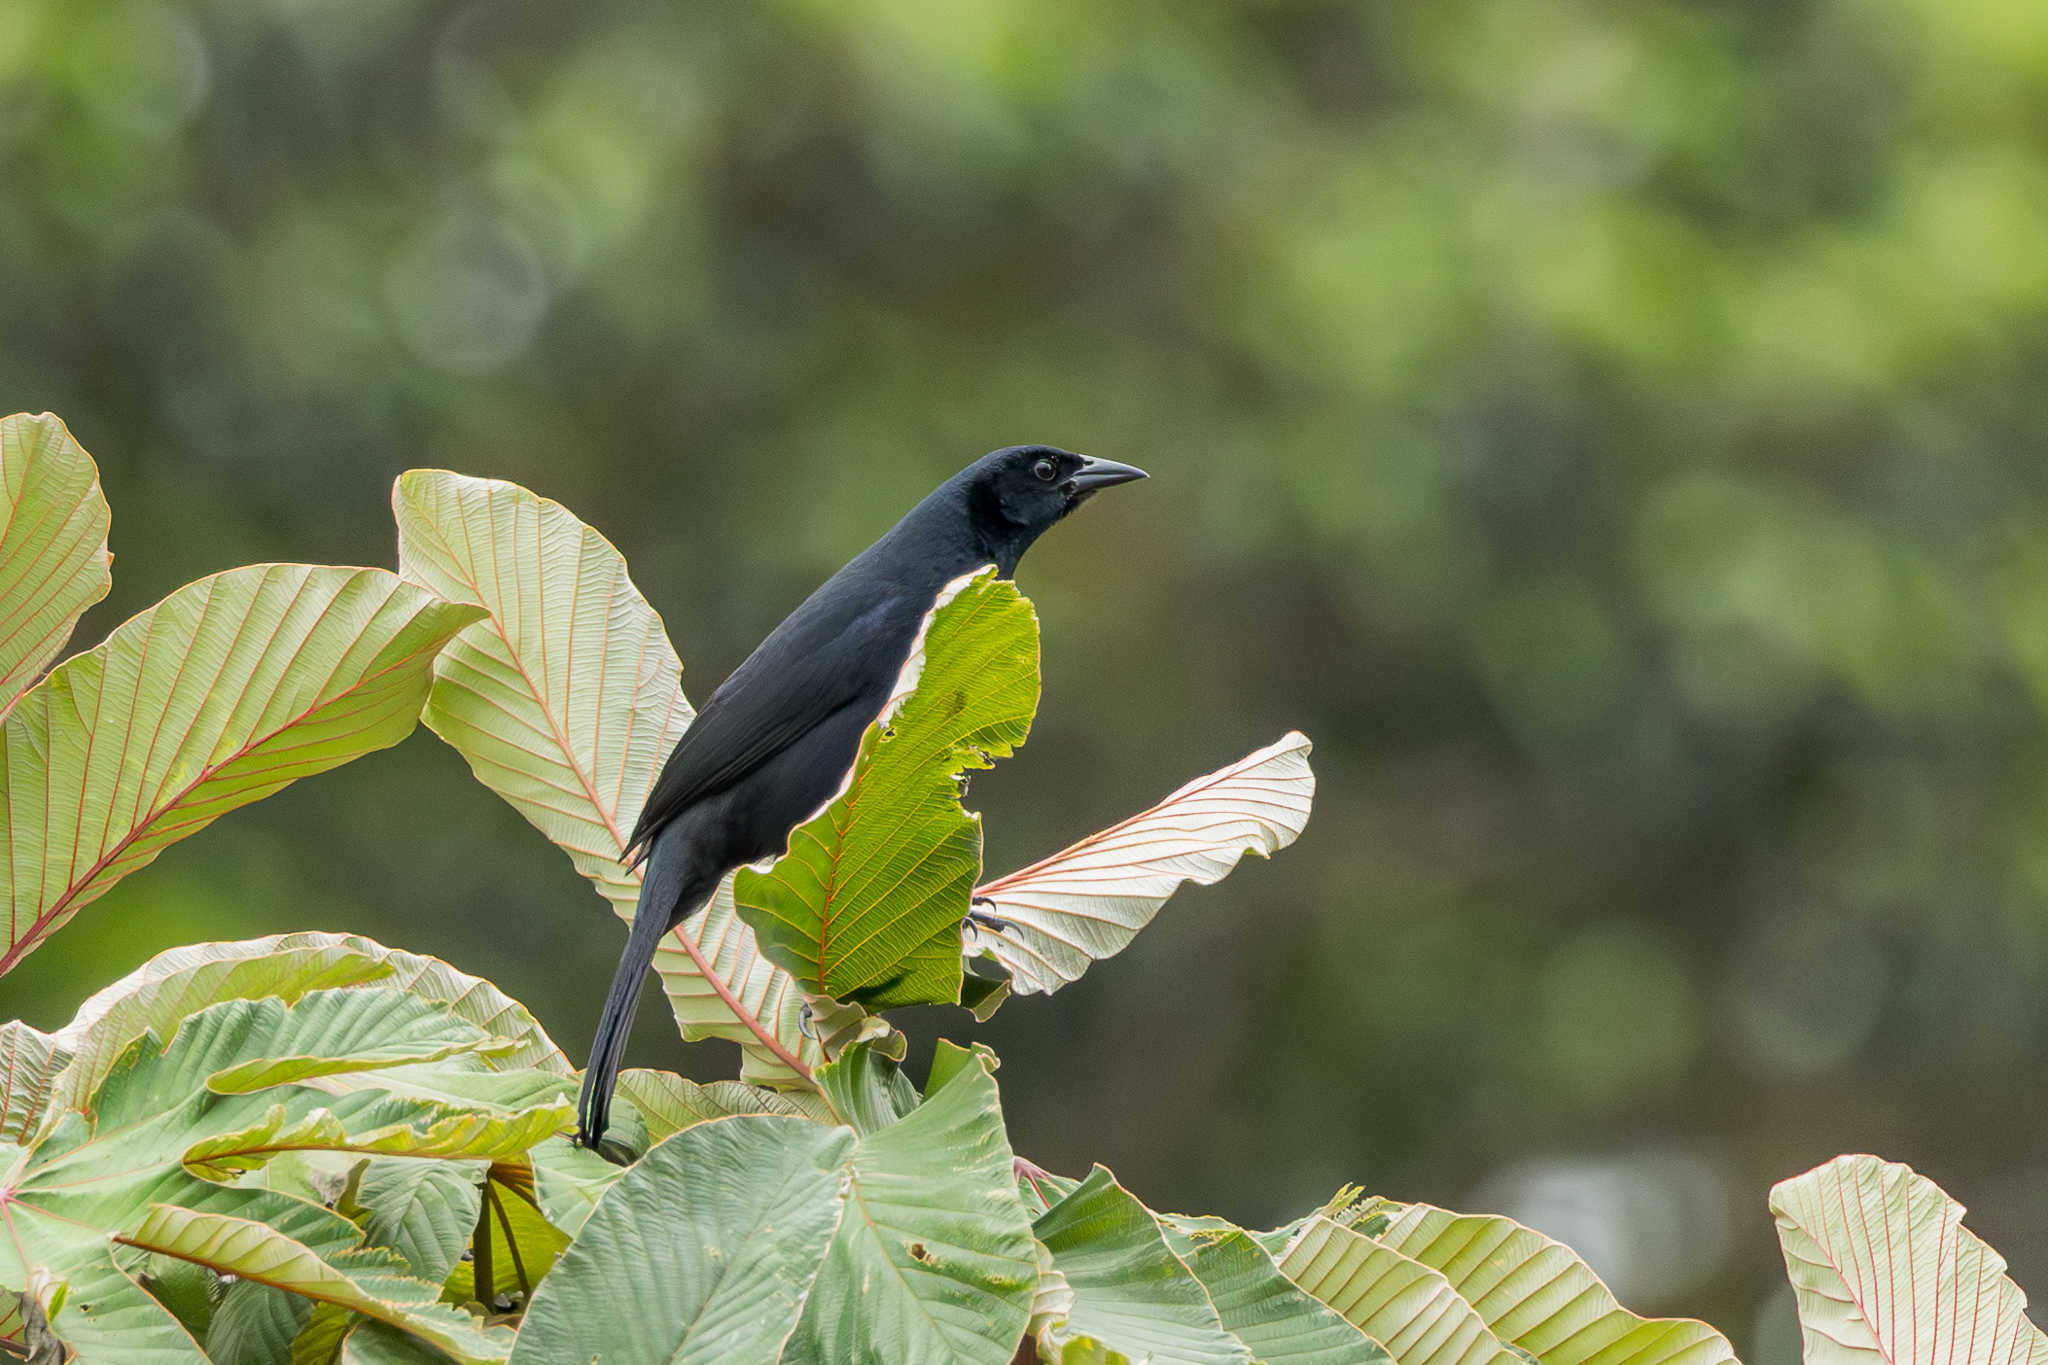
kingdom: Animalia
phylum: Chordata
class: Aves
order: Passeriformes
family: Icteridae
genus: Dives
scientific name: Dives dives
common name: Melodious blackbird
